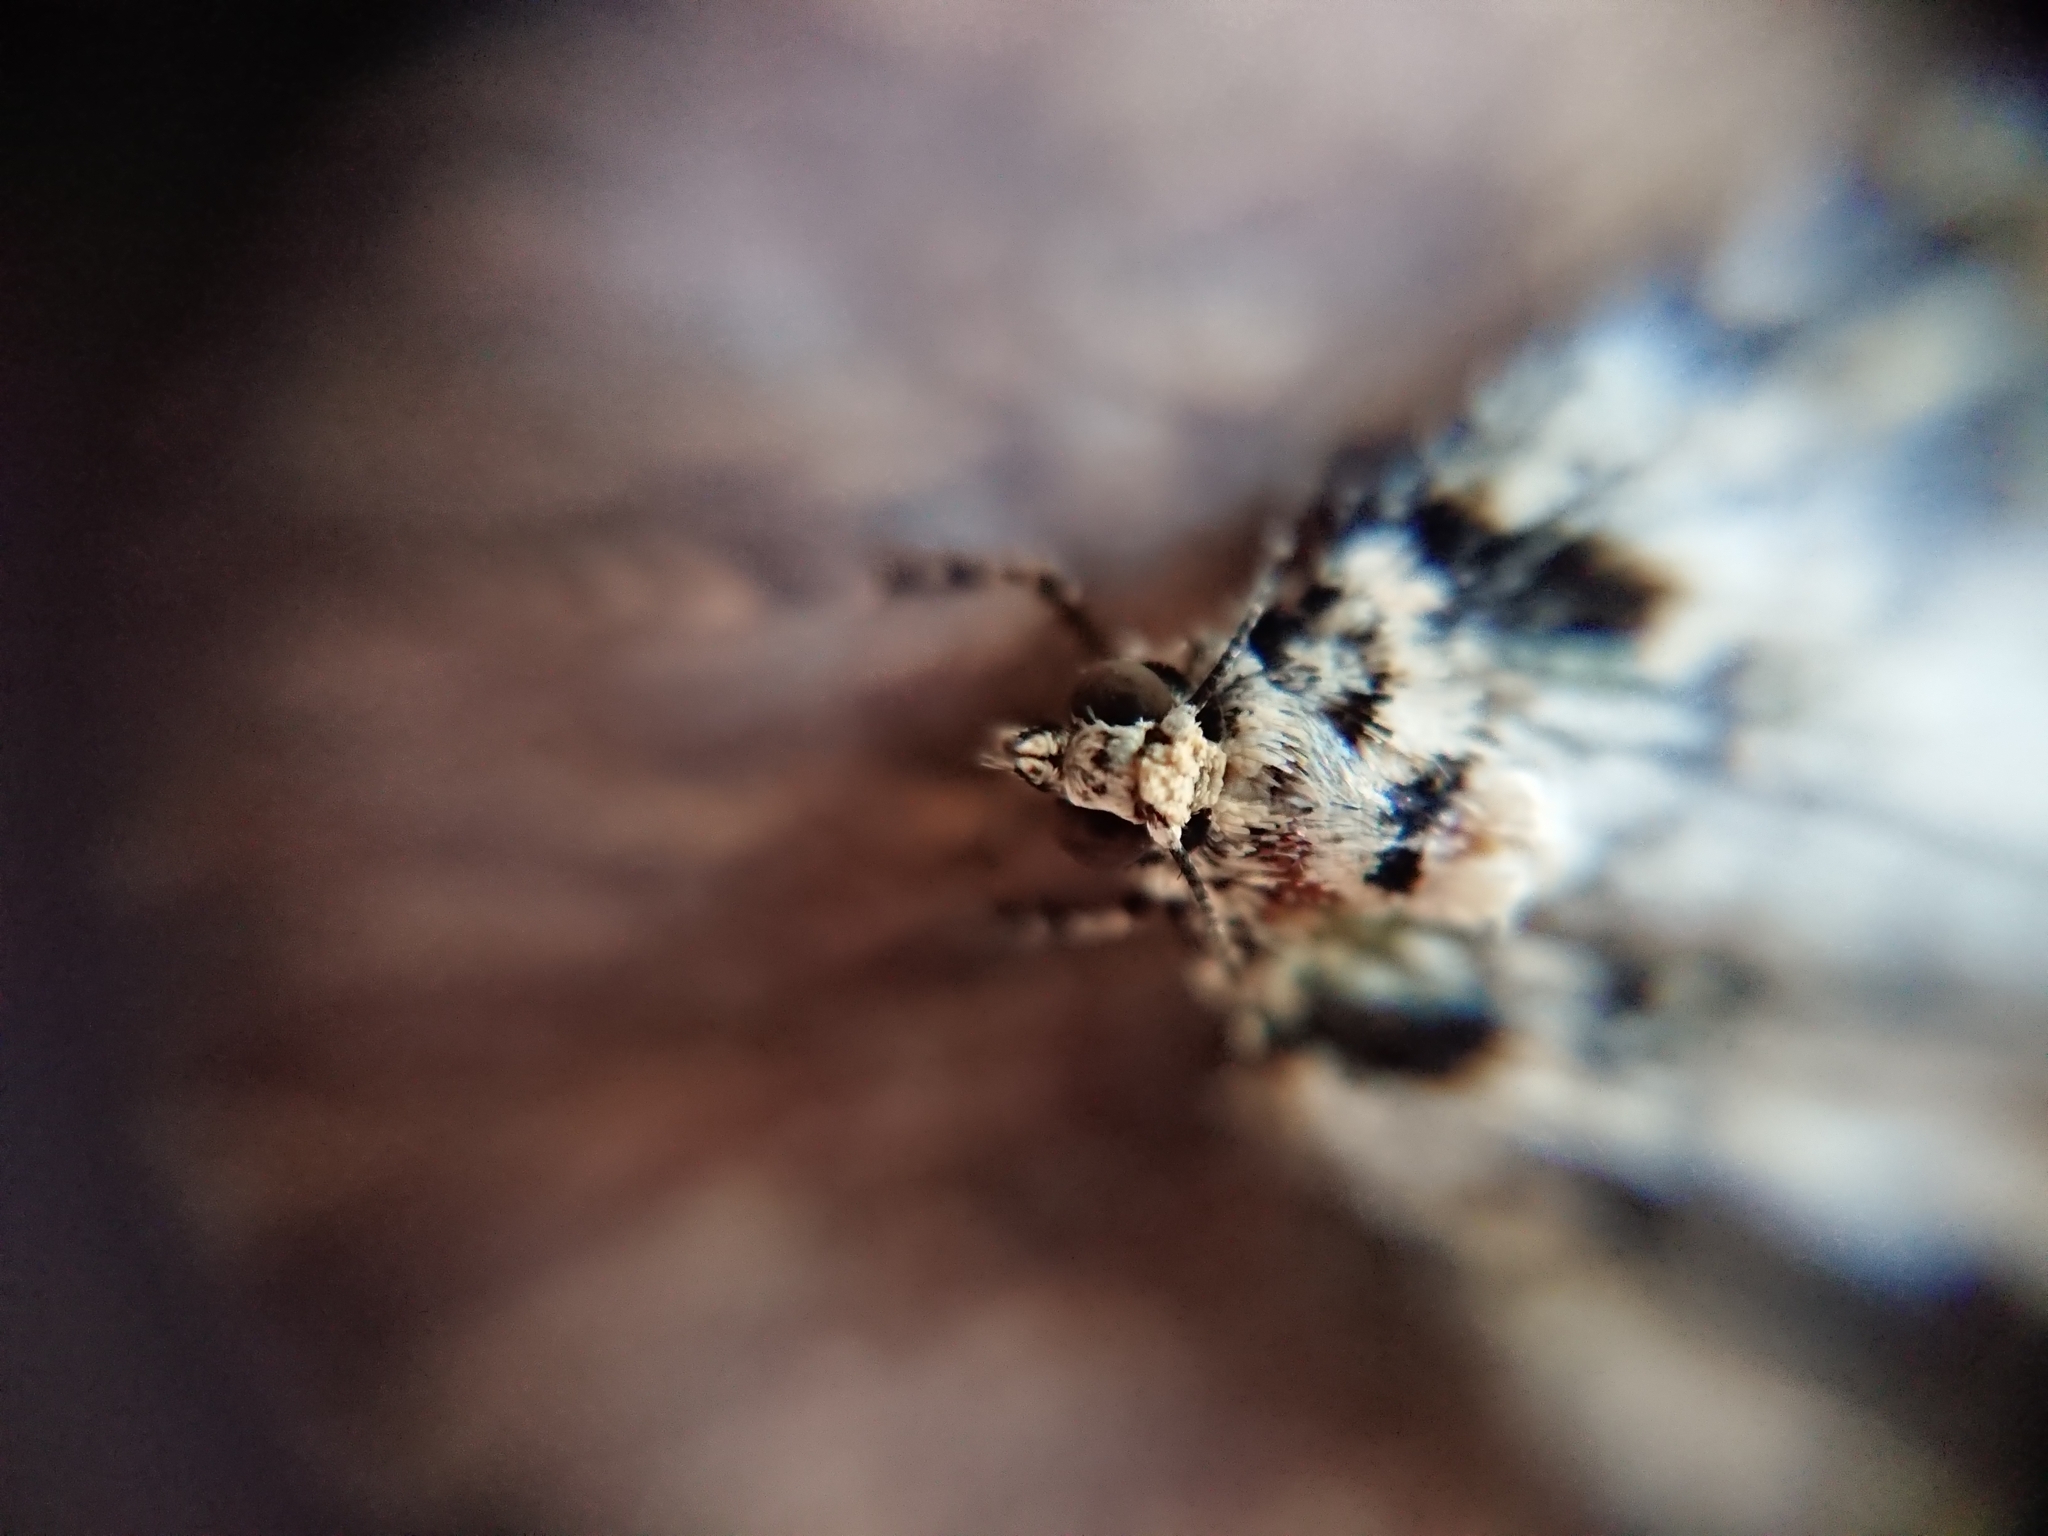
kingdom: Animalia
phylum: Arthropoda
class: Insecta
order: Lepidoptera
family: Geometridae
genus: Pseudocoremia
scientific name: Pseudocoremia leucelaea
